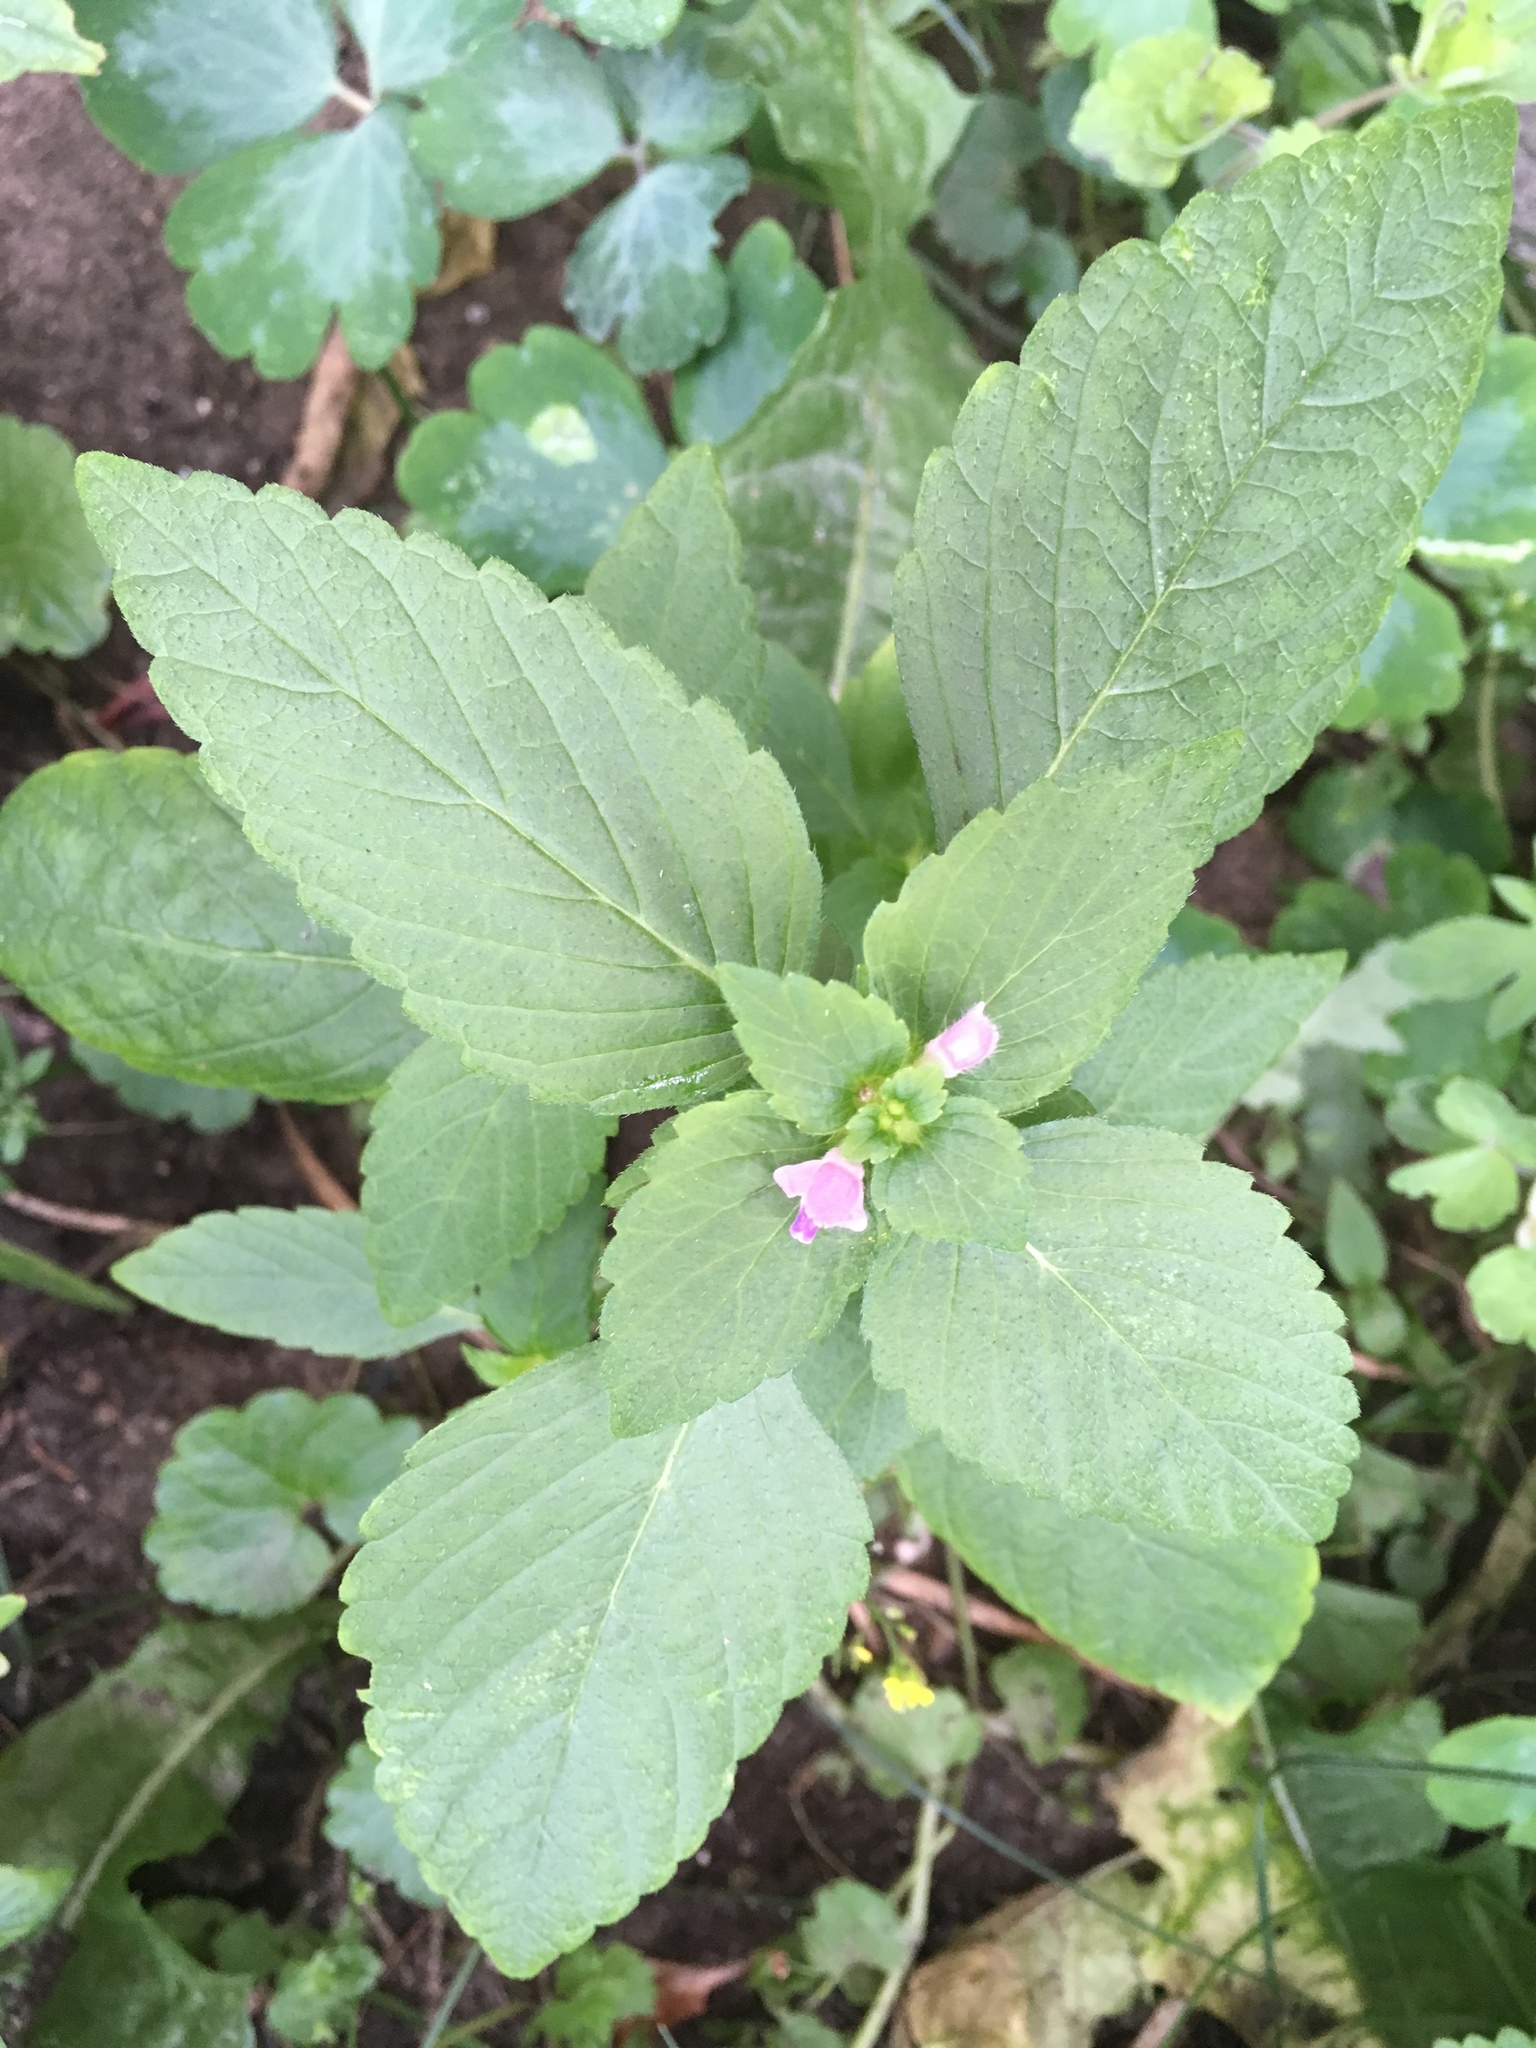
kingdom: Plantae
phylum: Tracheophyta
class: Magnoliopsida
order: Lamiales
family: Lamiaceae
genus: Galeopsis
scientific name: Galeopsis bifida
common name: Bifid hemp-nettle
